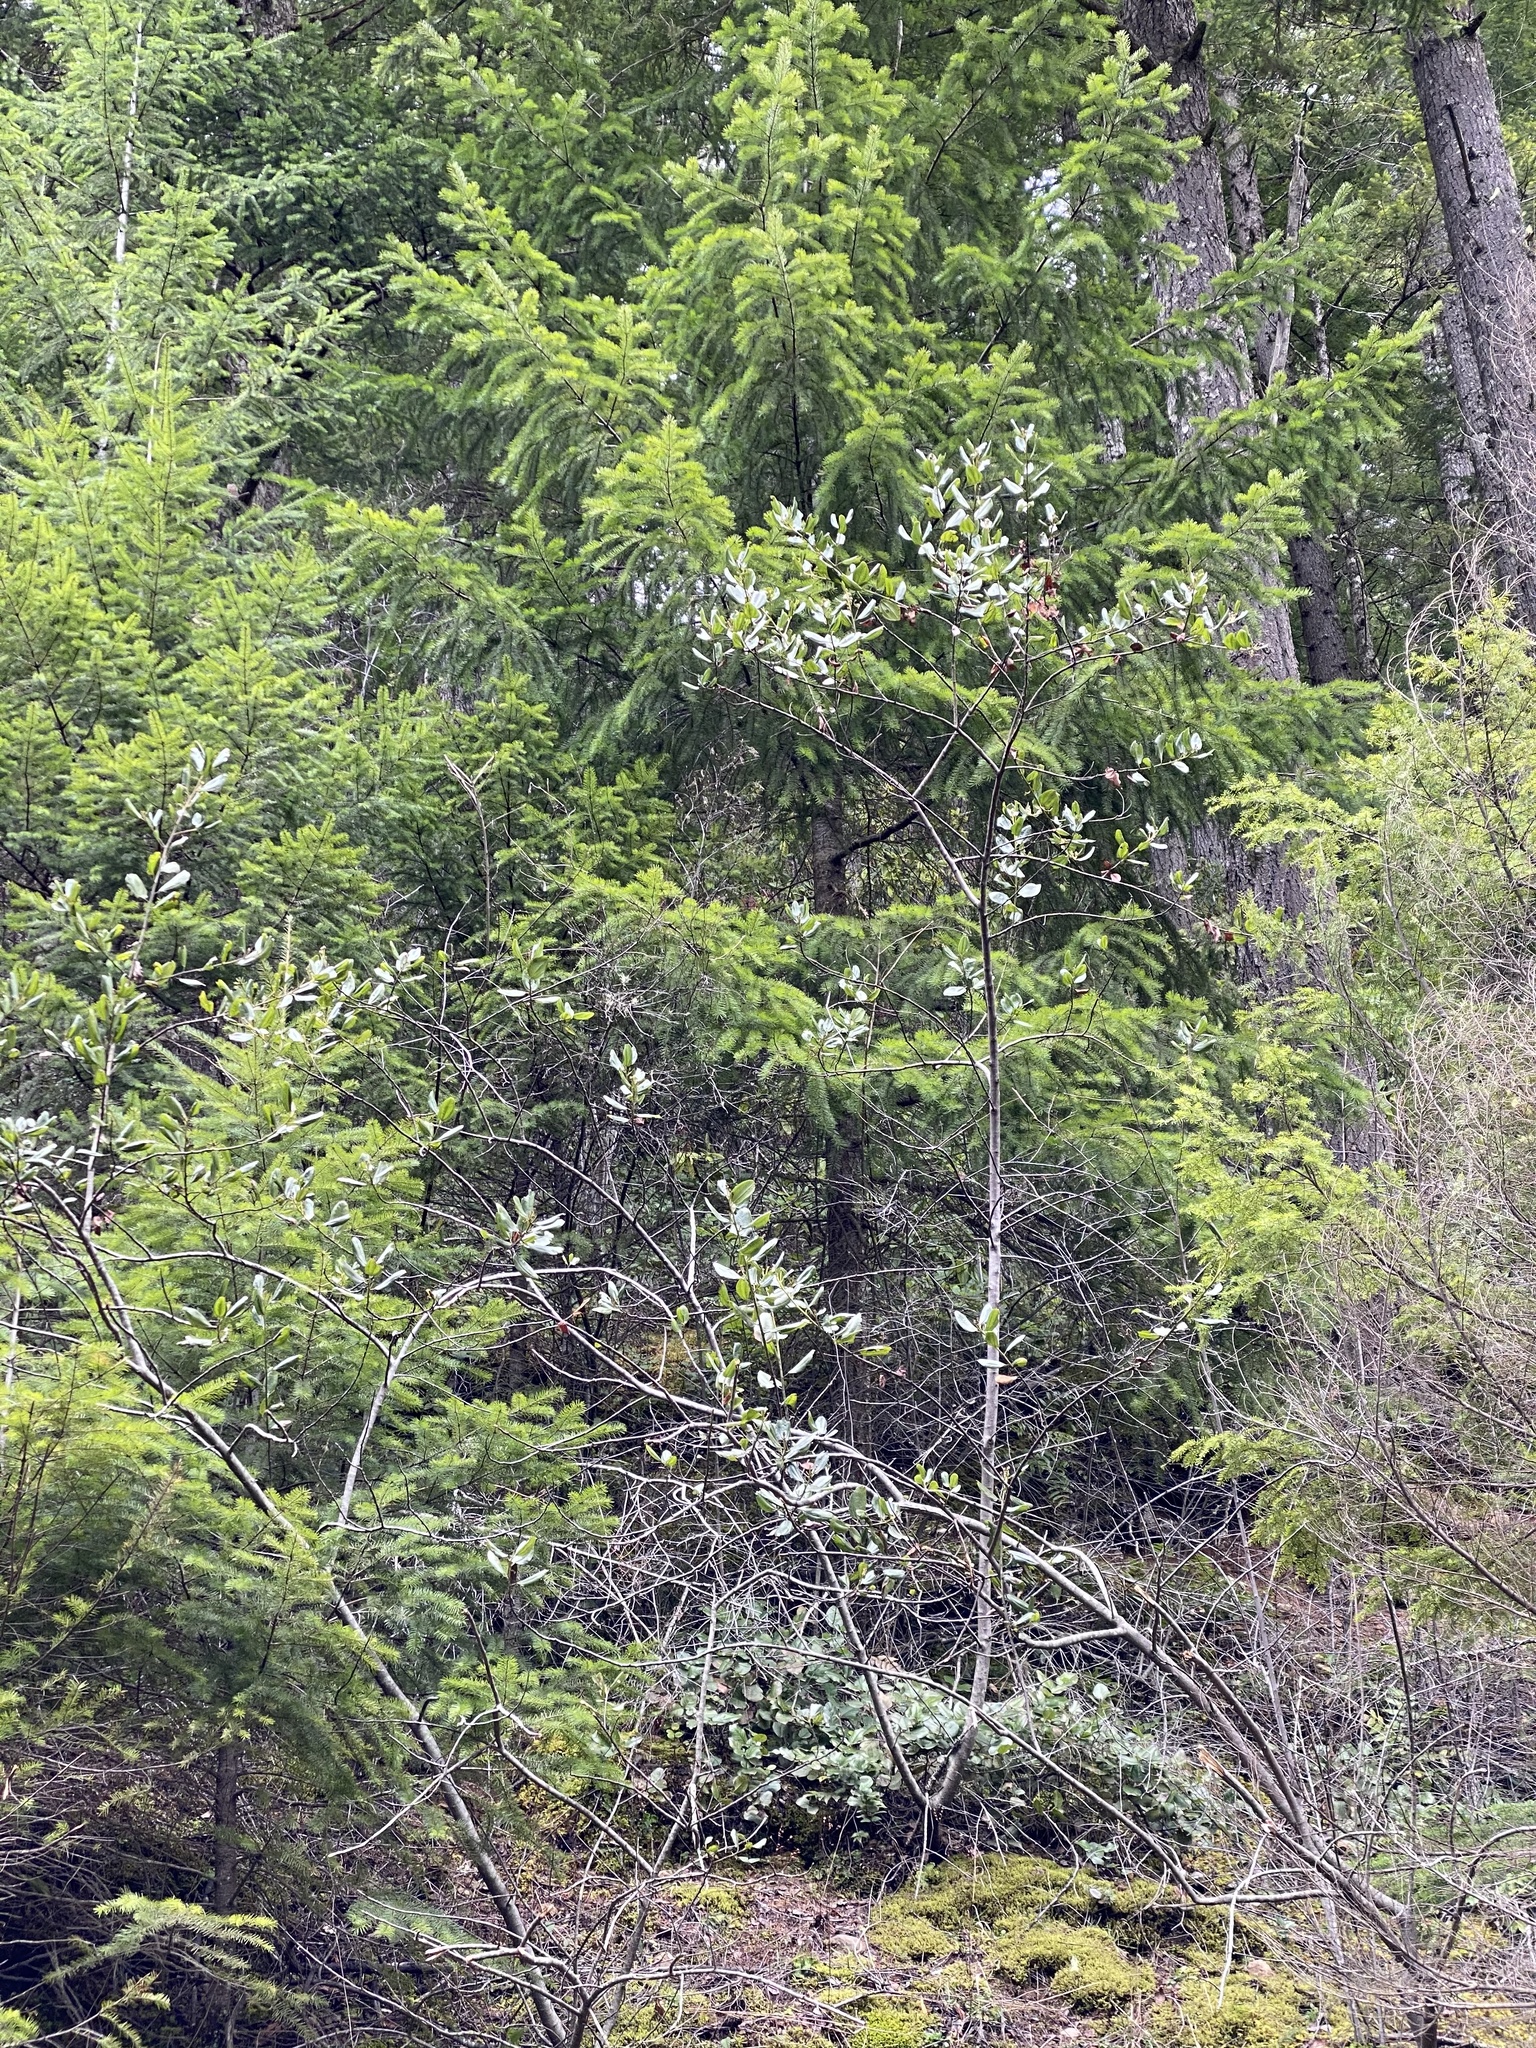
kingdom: Plantae
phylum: Tracheophyta
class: Magnoliopsida
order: Rosales
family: Rhamnaceae
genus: Ceanothus
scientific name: Ceanothus velutinus
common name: Snowbrush
